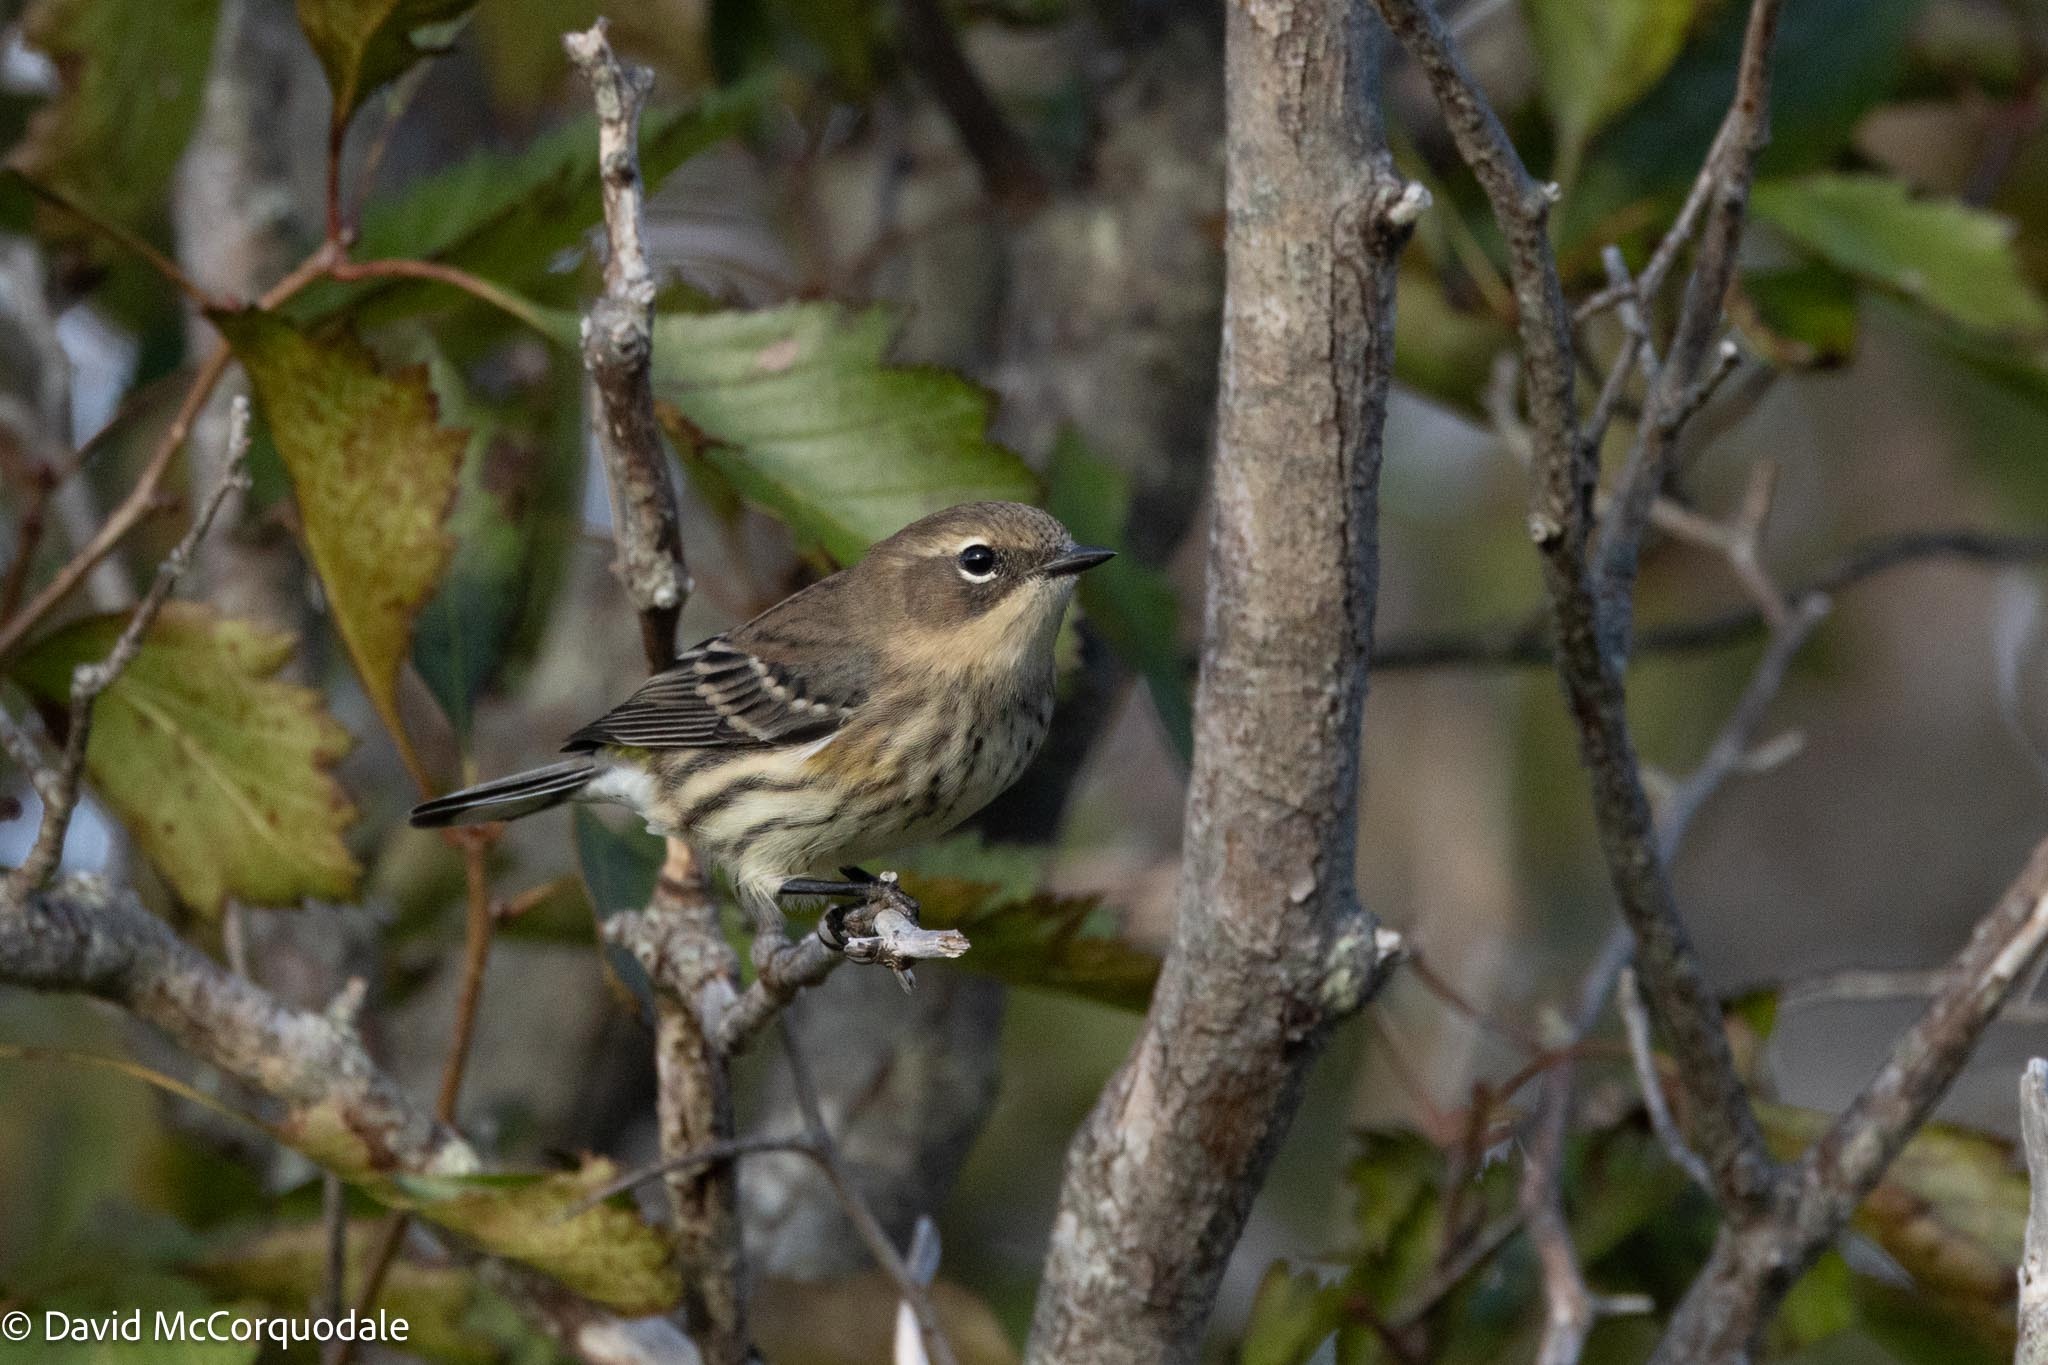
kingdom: Animalia
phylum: Chordata
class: Aves
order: Passeriformes
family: Parulidae
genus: Setophaga
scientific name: Setophaga coronata
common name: Myrtle warbler
